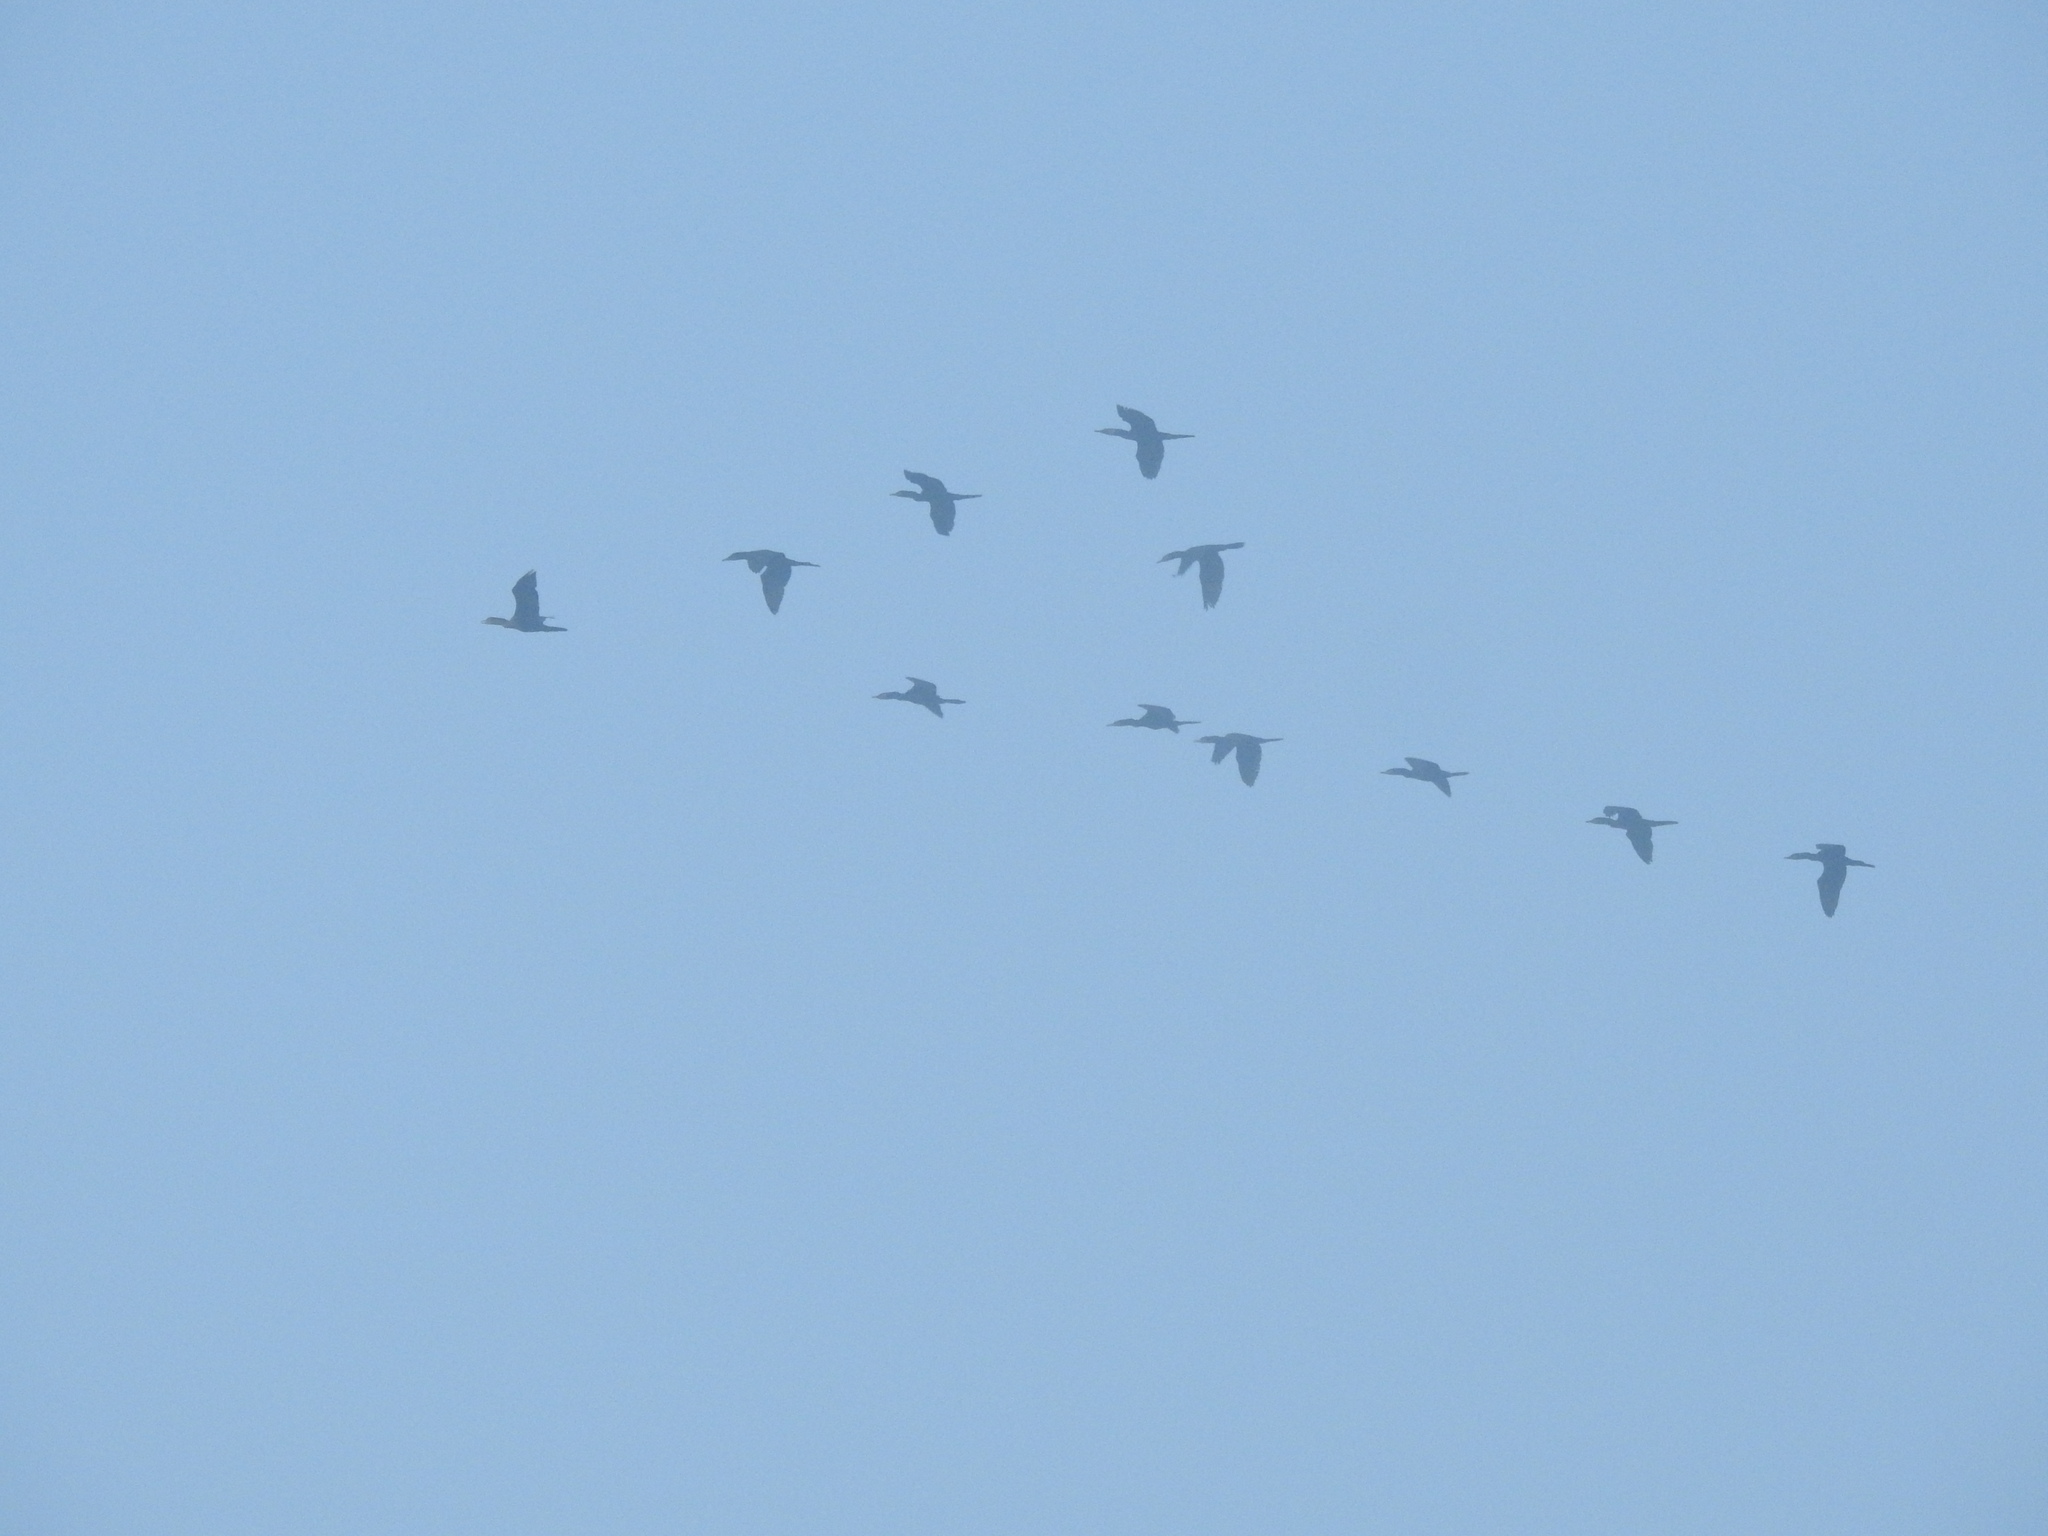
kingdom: Animalia
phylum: Chordata
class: Aves
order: Suliformes
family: Phalacrocoracidae
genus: Phalacrocorax
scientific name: Phalacrocorax brasilianus
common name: Neotropic cormorant
